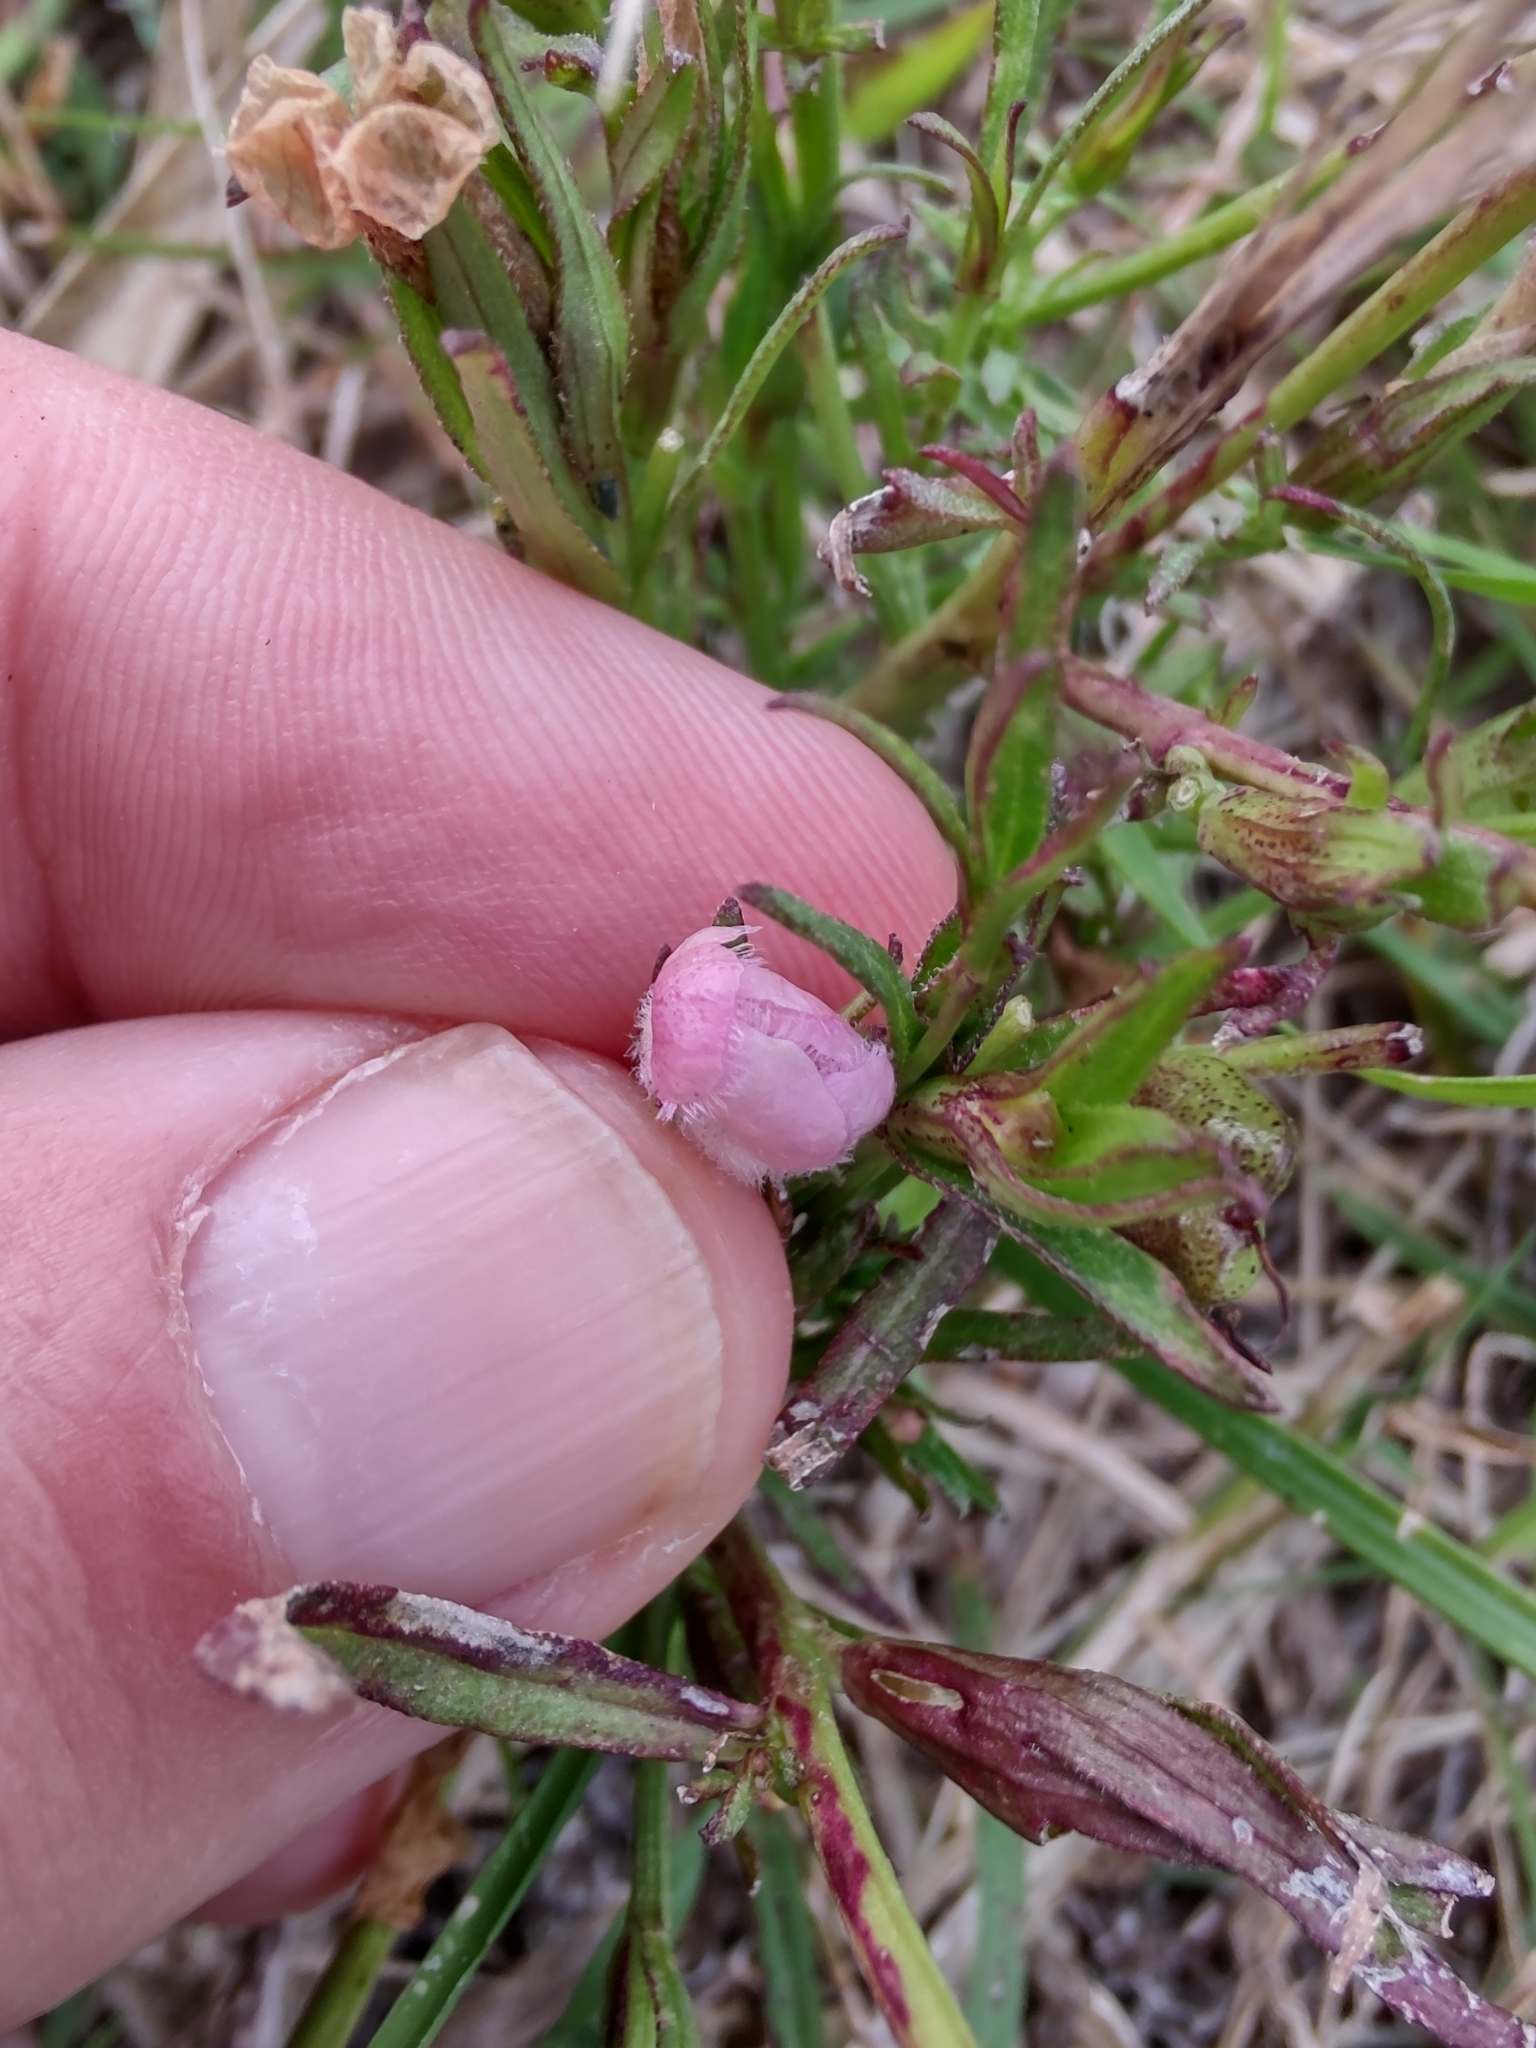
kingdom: Plantae
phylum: Tracheophyta
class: Magnoliopsida
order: Lamiales
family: Orobanchaceae
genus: Agalinis
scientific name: Agalinis communis
